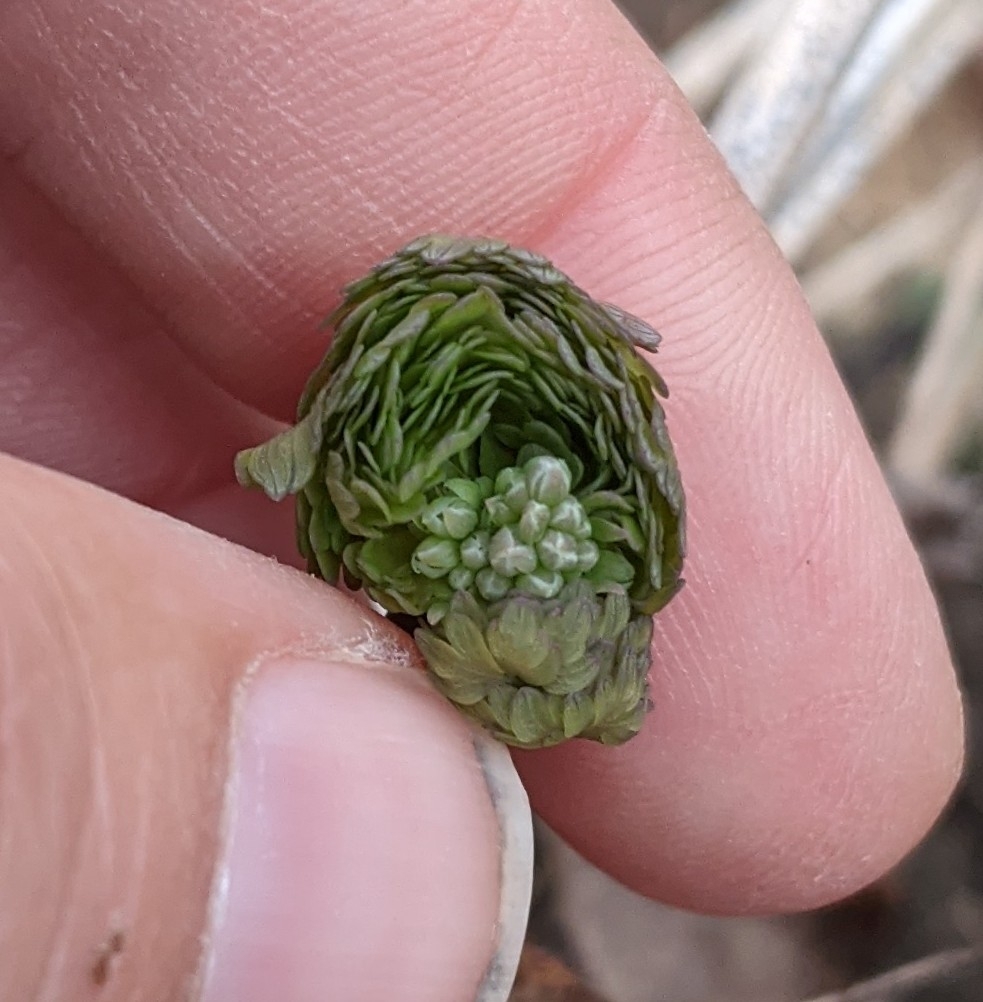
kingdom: Plantae
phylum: Tracheophyta
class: Magnoliopsida
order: Ranunculales
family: Ranunculaceae
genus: Thalictrum
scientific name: Thalictrum dioicum
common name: Early meadow-rue
